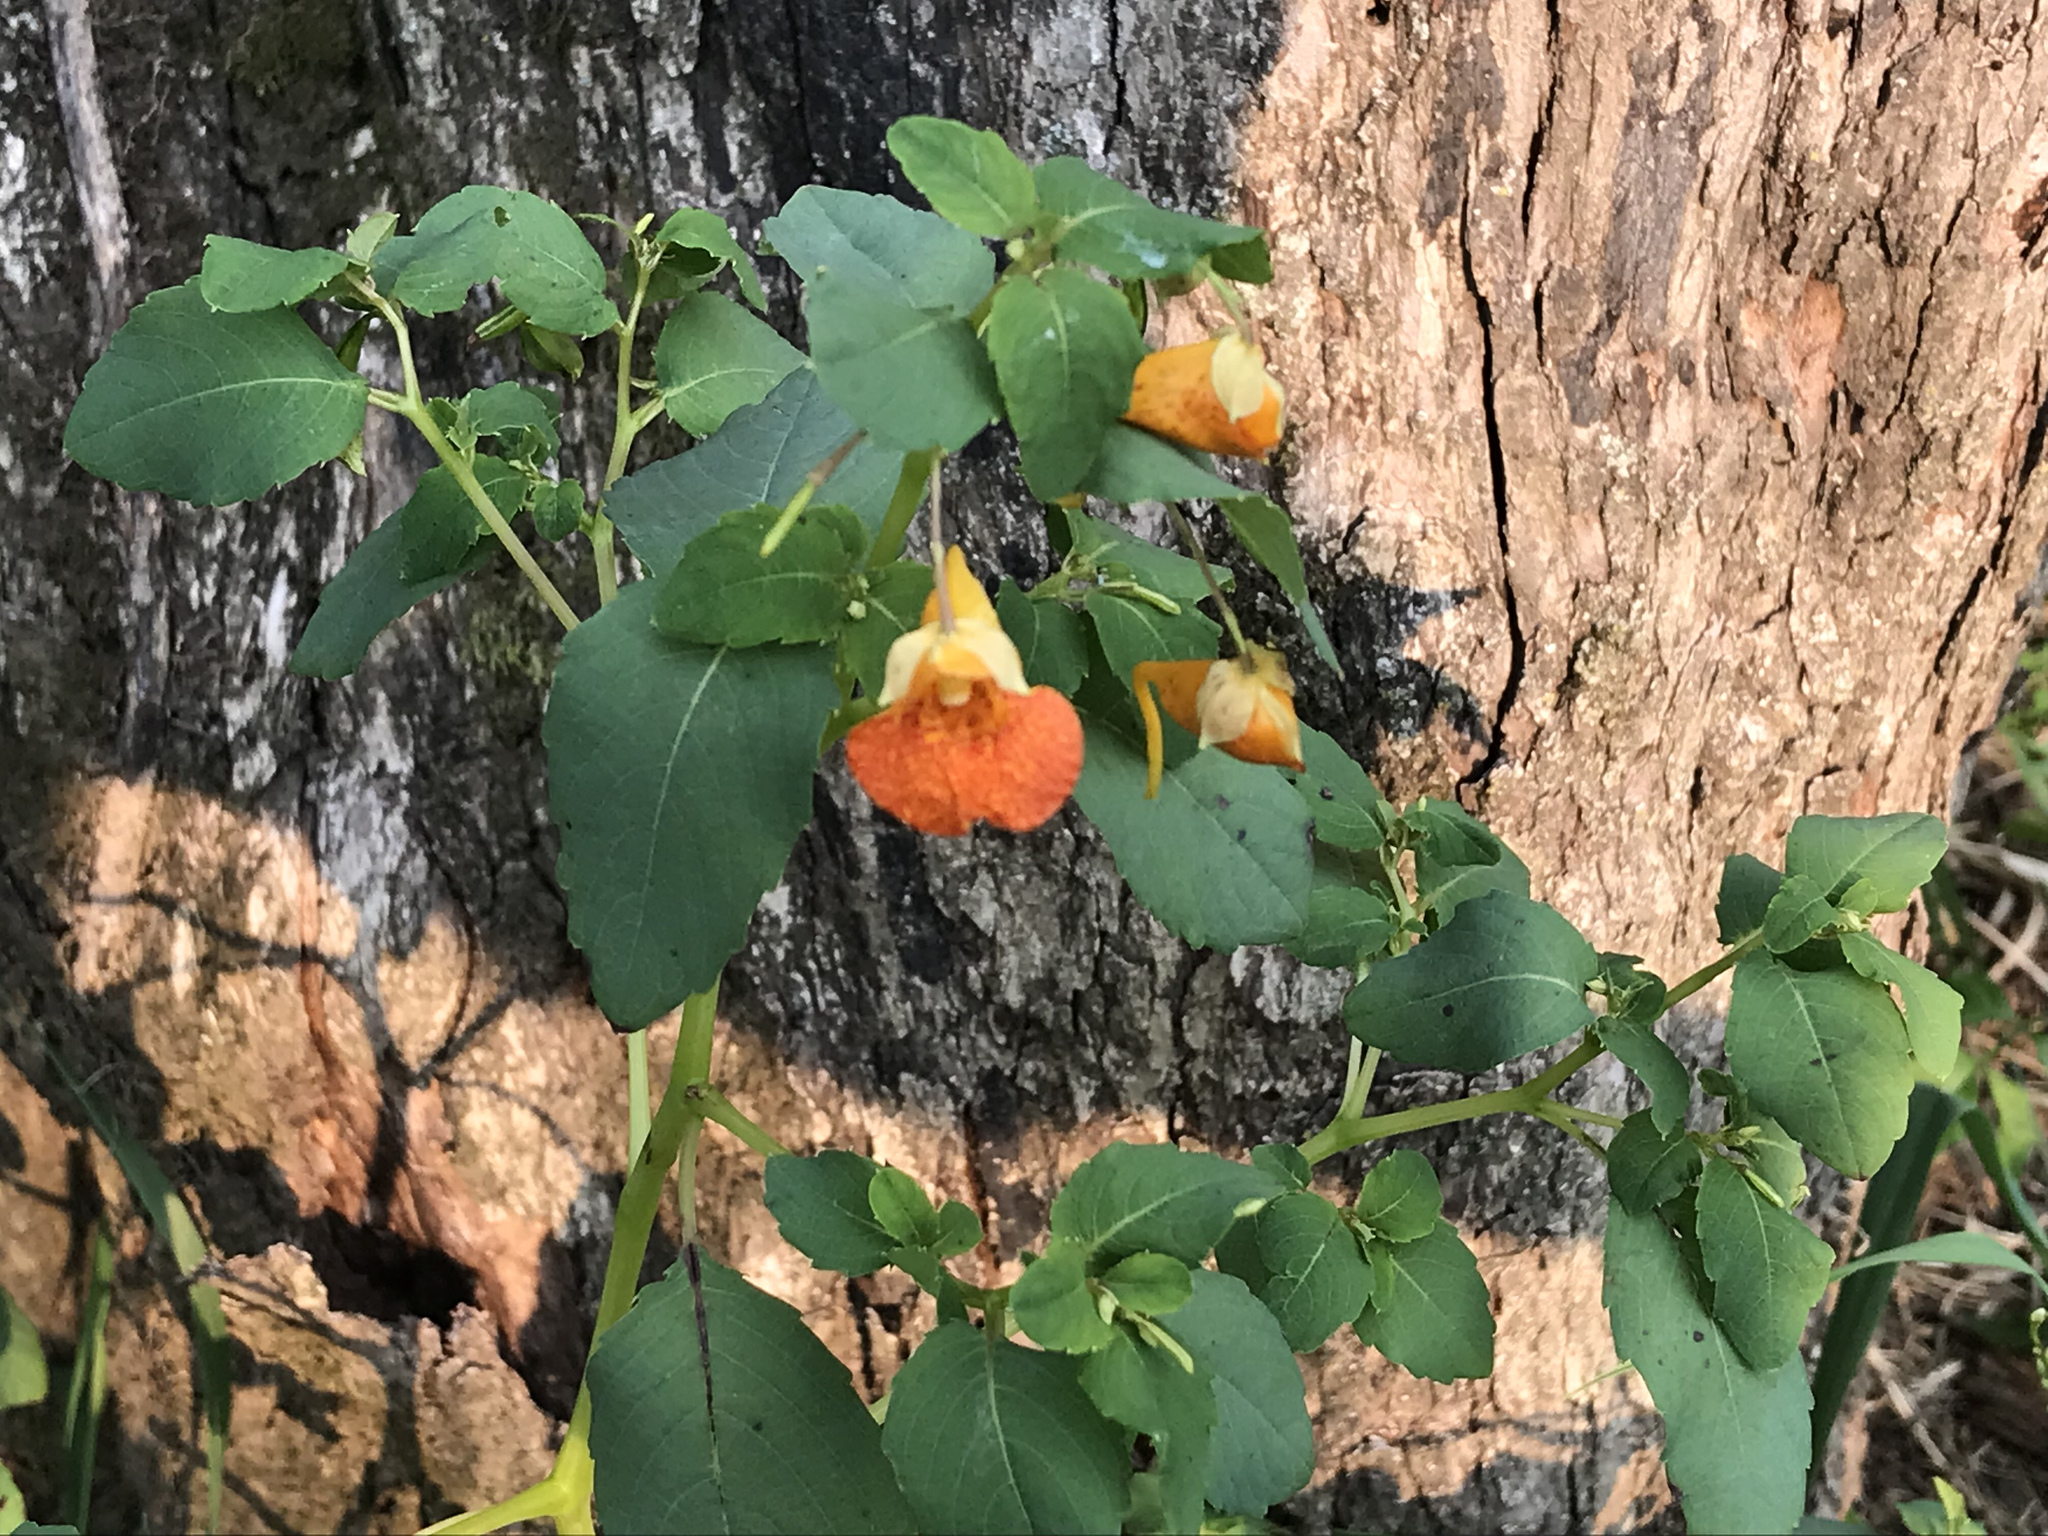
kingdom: Plantae
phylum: Tracheophyta
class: Magnoliopsida
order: Ericales
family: Balsaminaceae
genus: Impatiens
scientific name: Impatiens capensis
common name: Orange balsam
